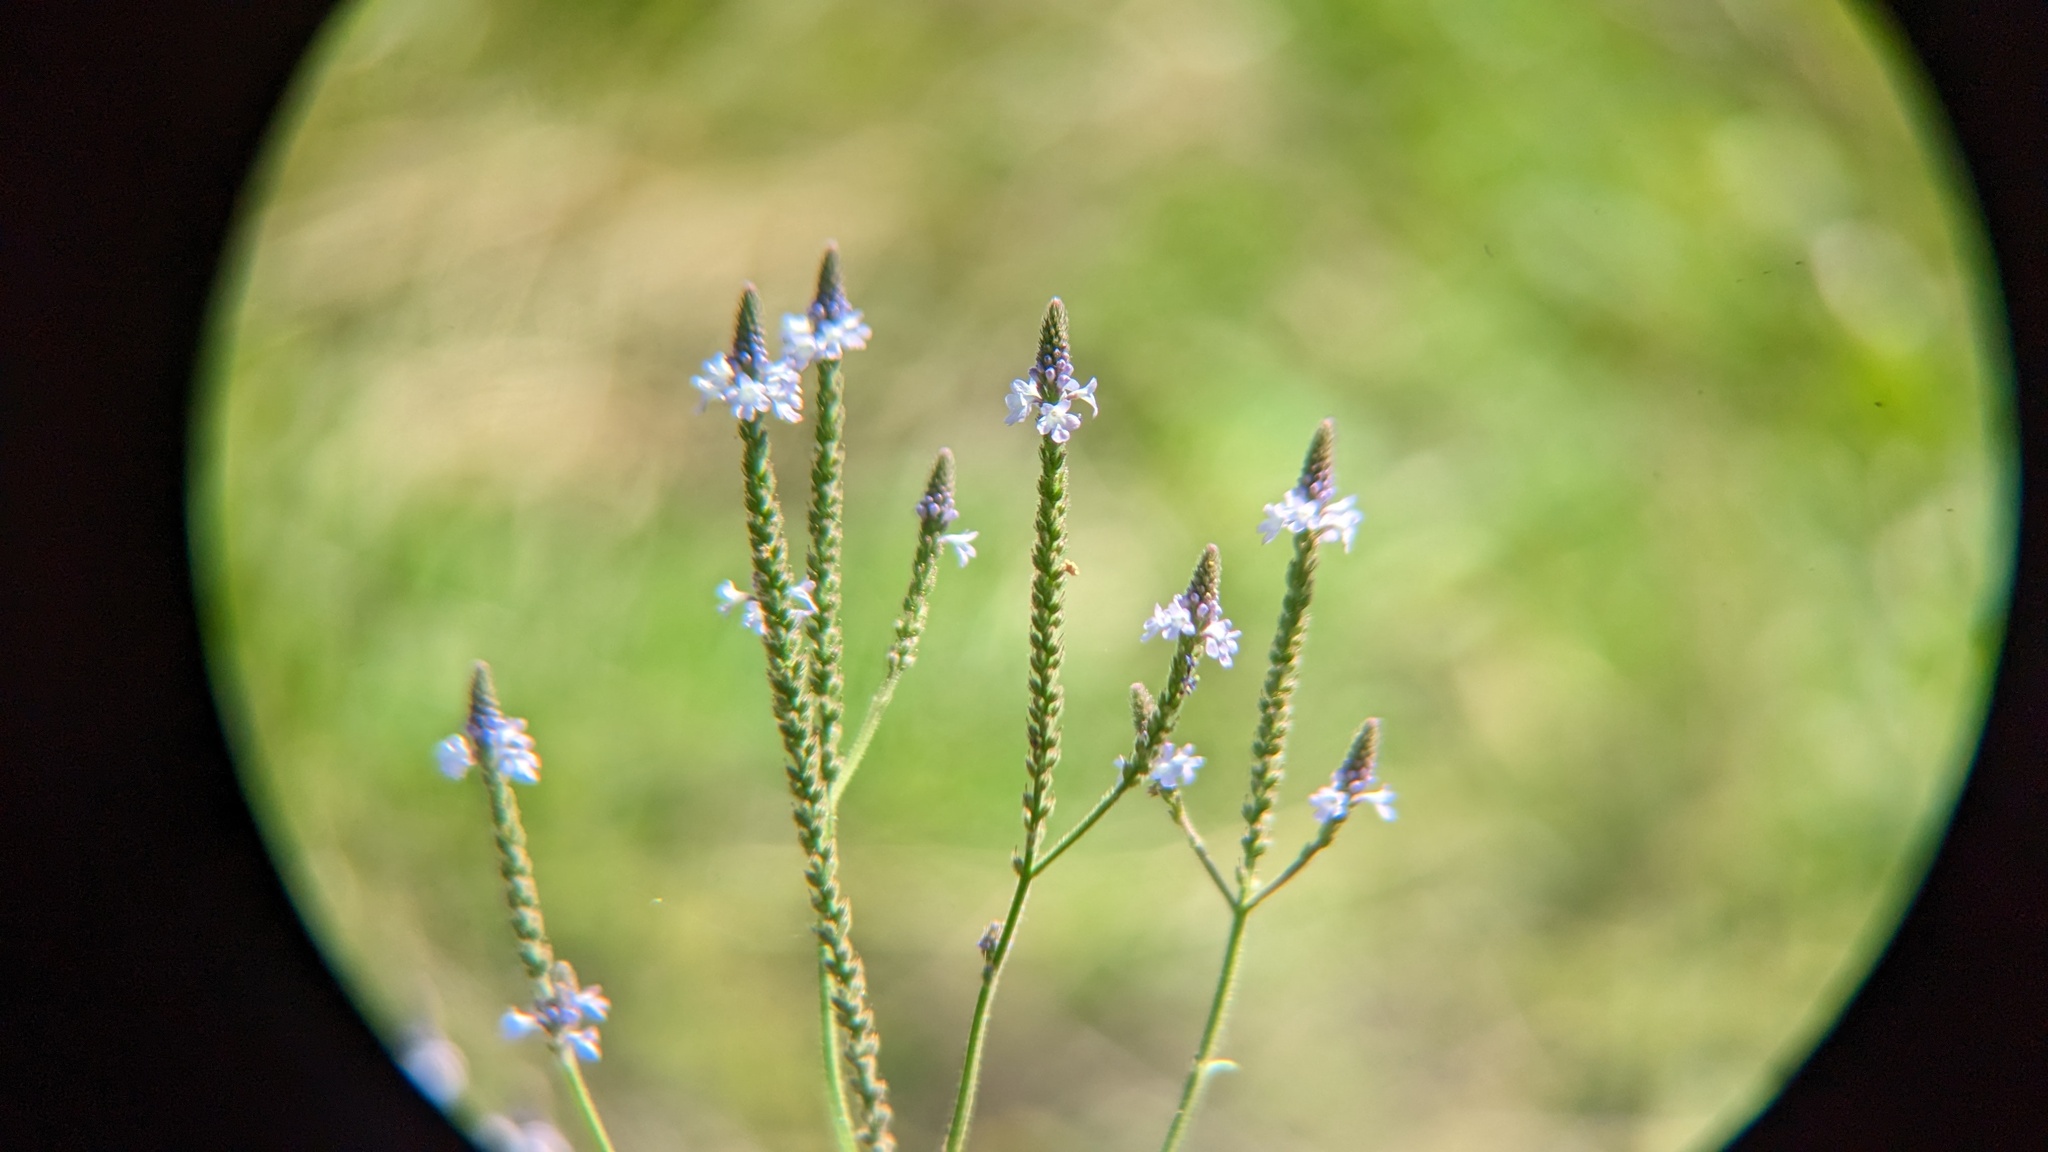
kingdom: Plantae
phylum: Tracheophyta
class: Magnoliopsida
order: Lamiales
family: Verbenaceae
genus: Verbena
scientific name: Verbena halei
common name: Texas vervain
